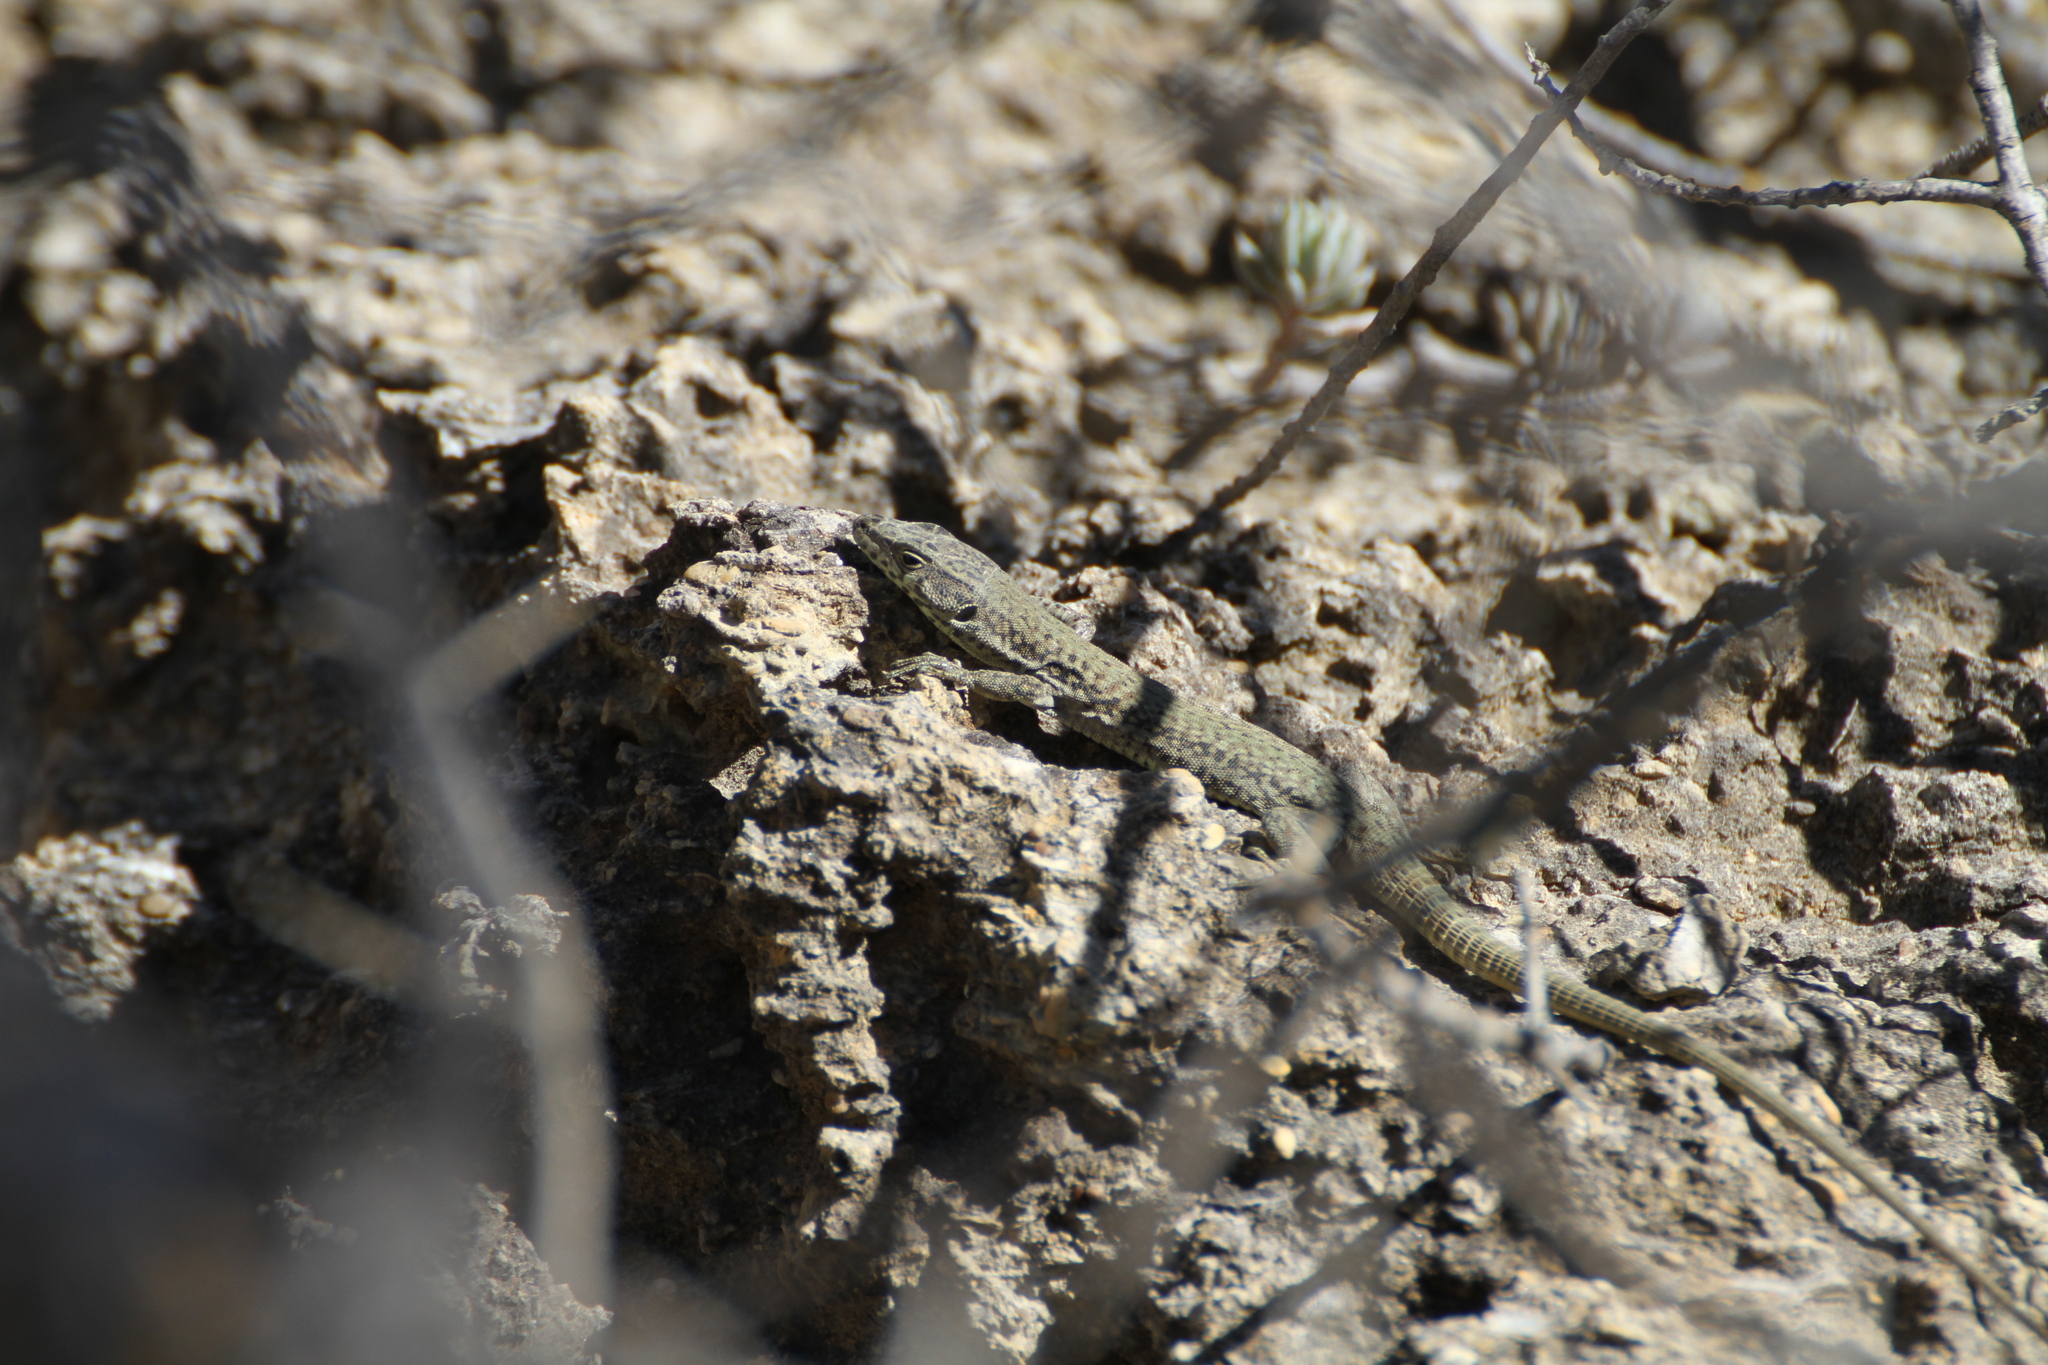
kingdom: Animalia
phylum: Chordata
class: Squamata
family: Lacertidae
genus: Podarcis
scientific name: Podarcis liolepis
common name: Catalonian wall lizard
